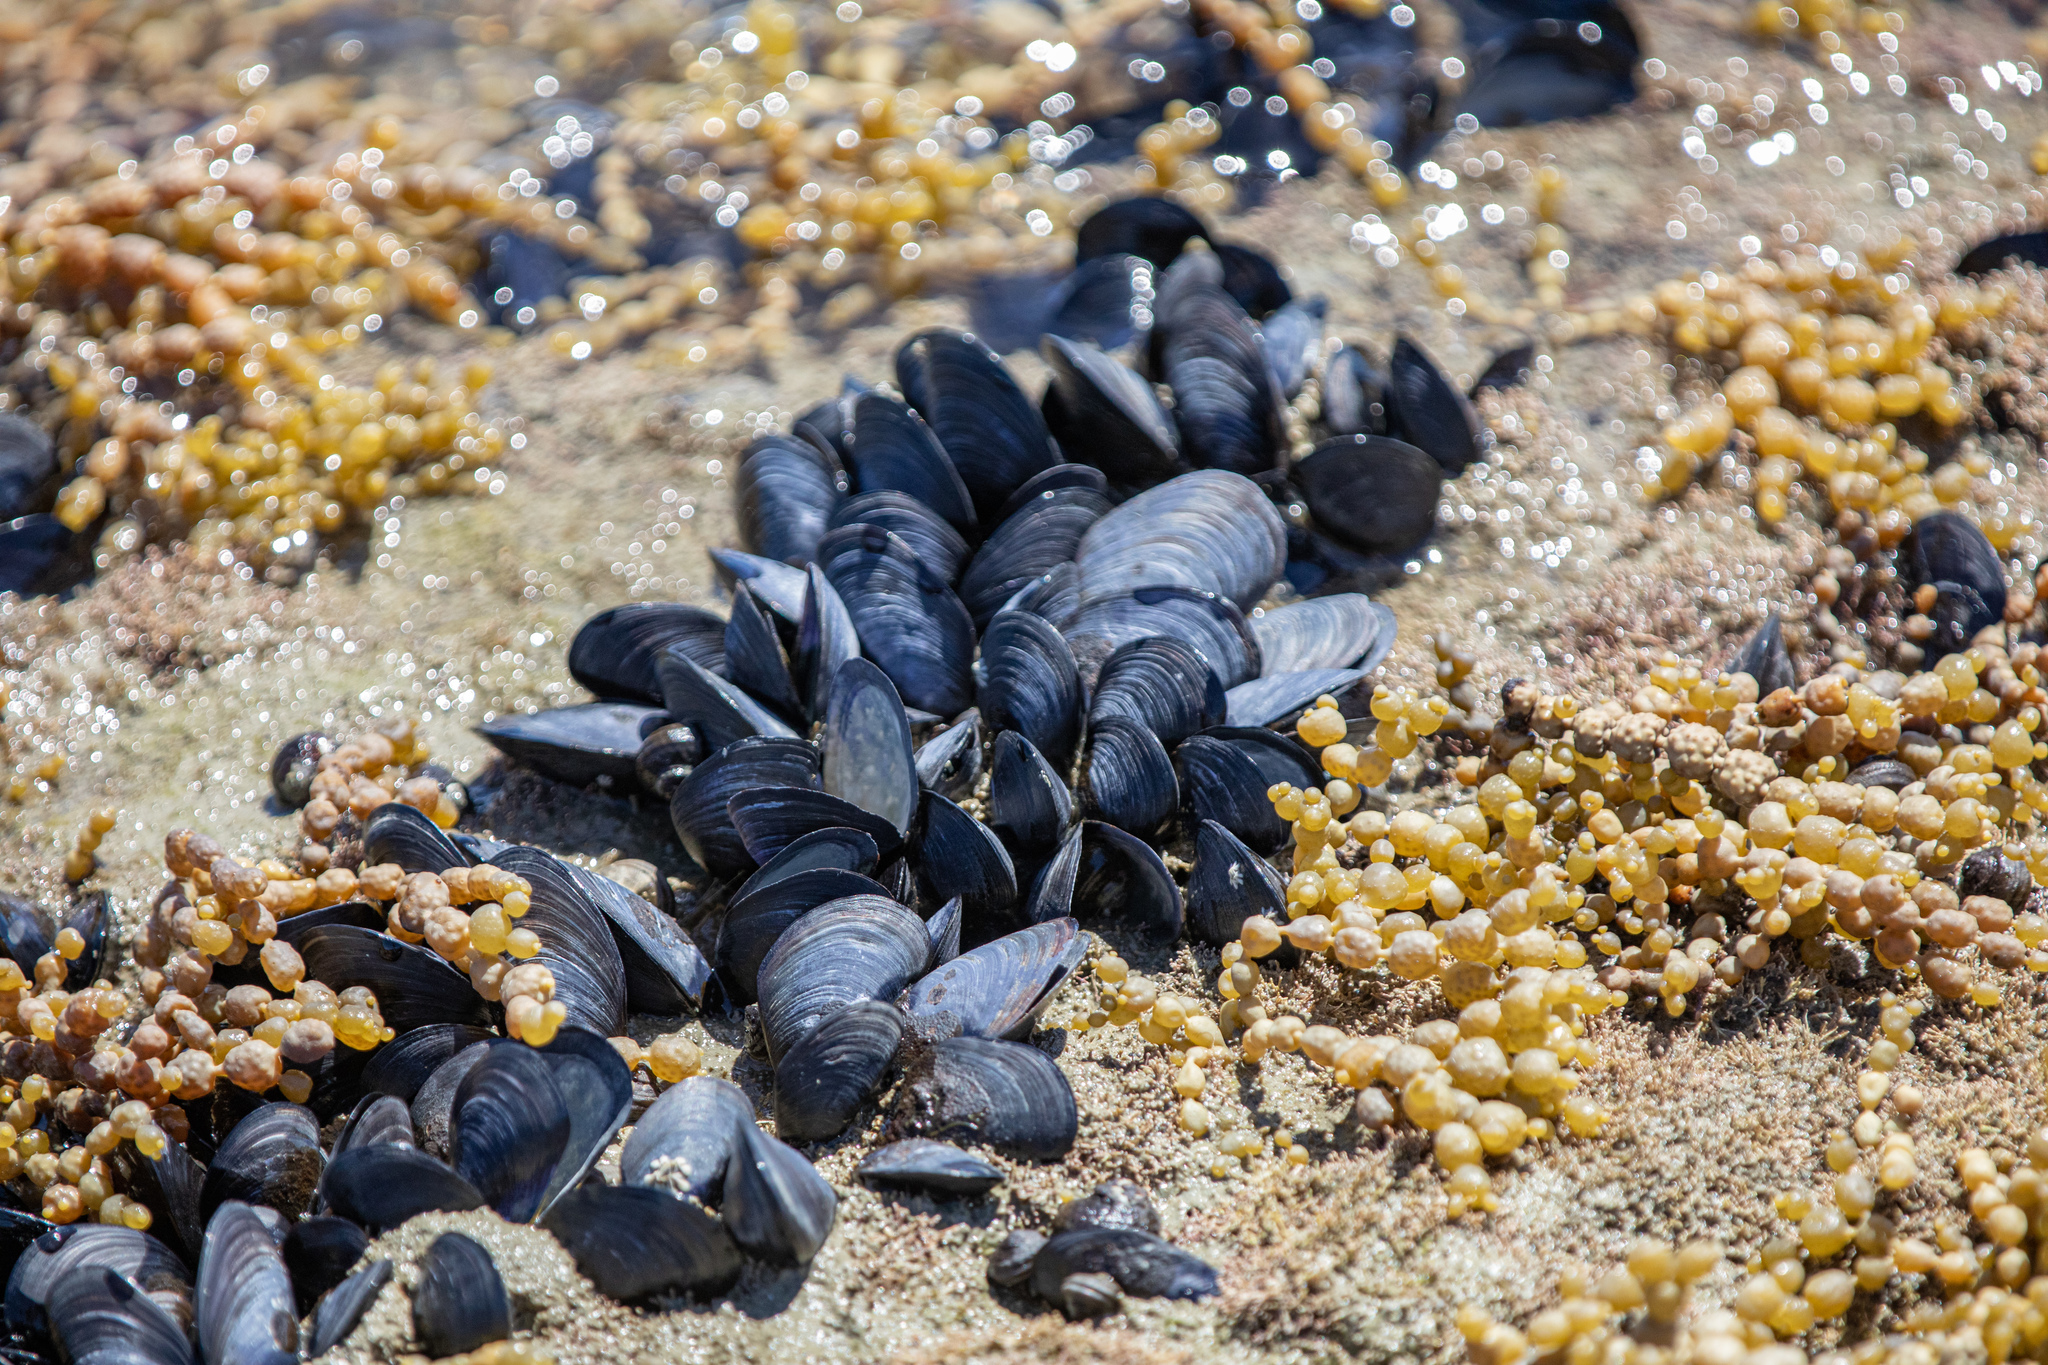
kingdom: Animalia
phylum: Mollusca
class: Bivalvia
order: Mytilida
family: Mytilidae
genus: Mytilus
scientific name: Mytilus planulatus
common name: Australian mussel
